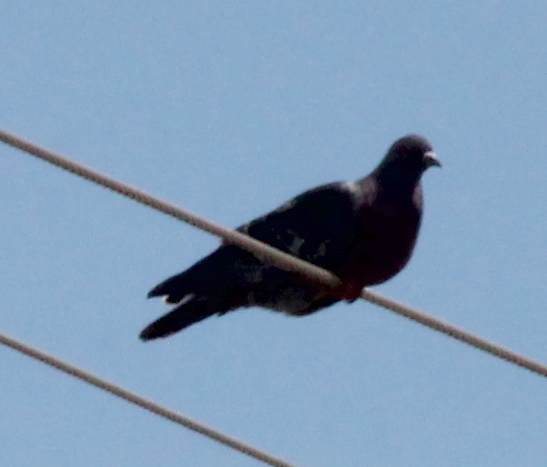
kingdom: Animalia
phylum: Chordata
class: Aves
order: Columbiformes
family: Columbidae
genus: Columba
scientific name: Columba livia
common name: Rock pigeon
